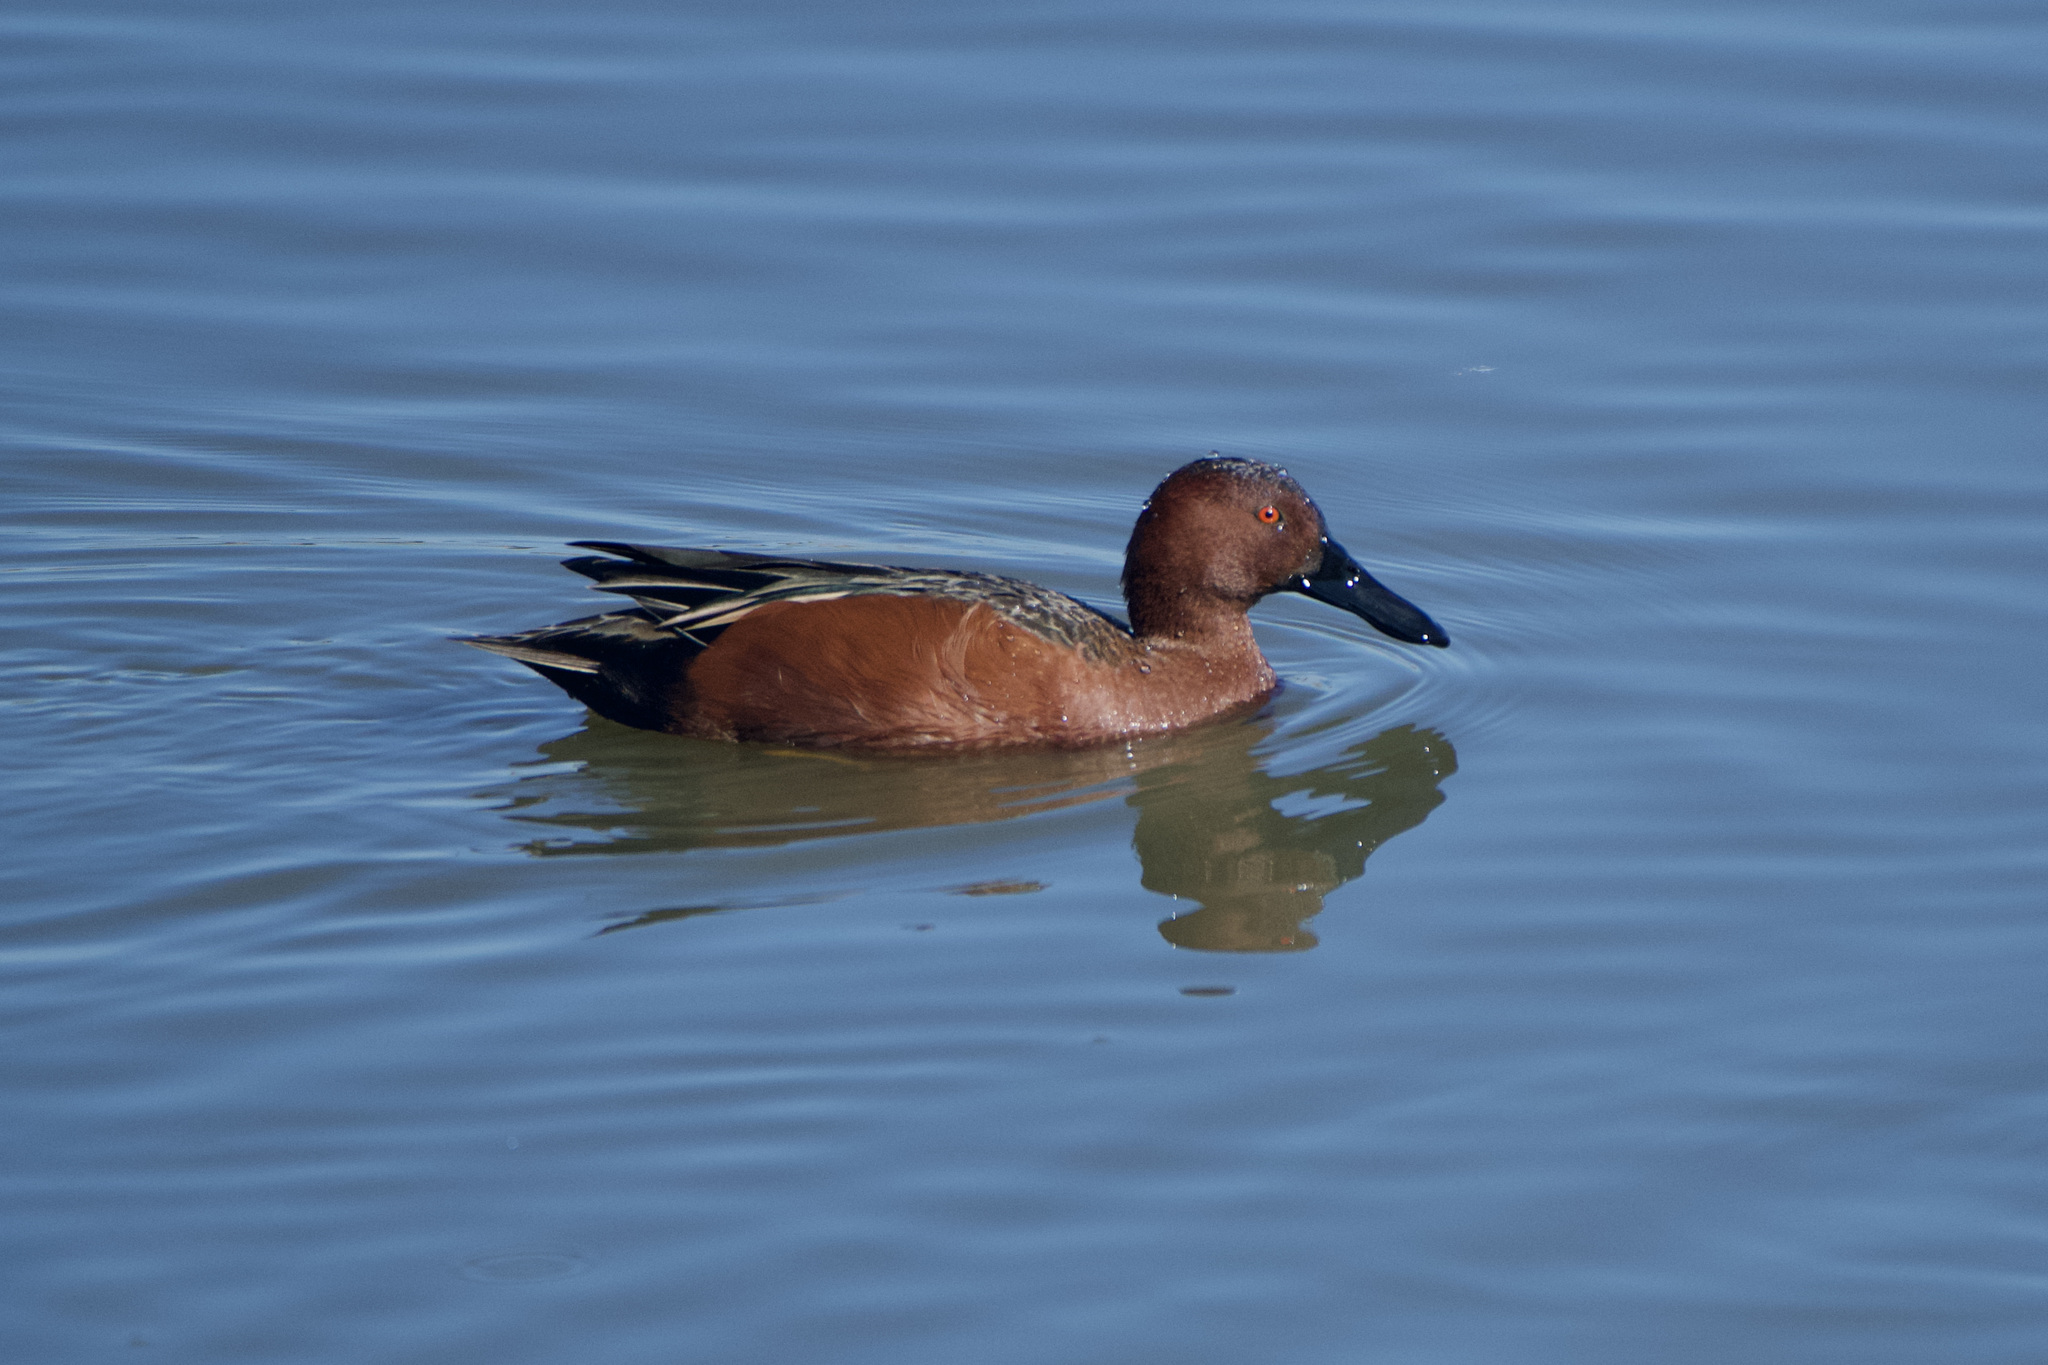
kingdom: Animalia
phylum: Chordata
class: Aves
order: Anseriformes
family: Anatidae
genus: Spatula
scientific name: Spatula cyanoptera
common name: Cinnamon teal
